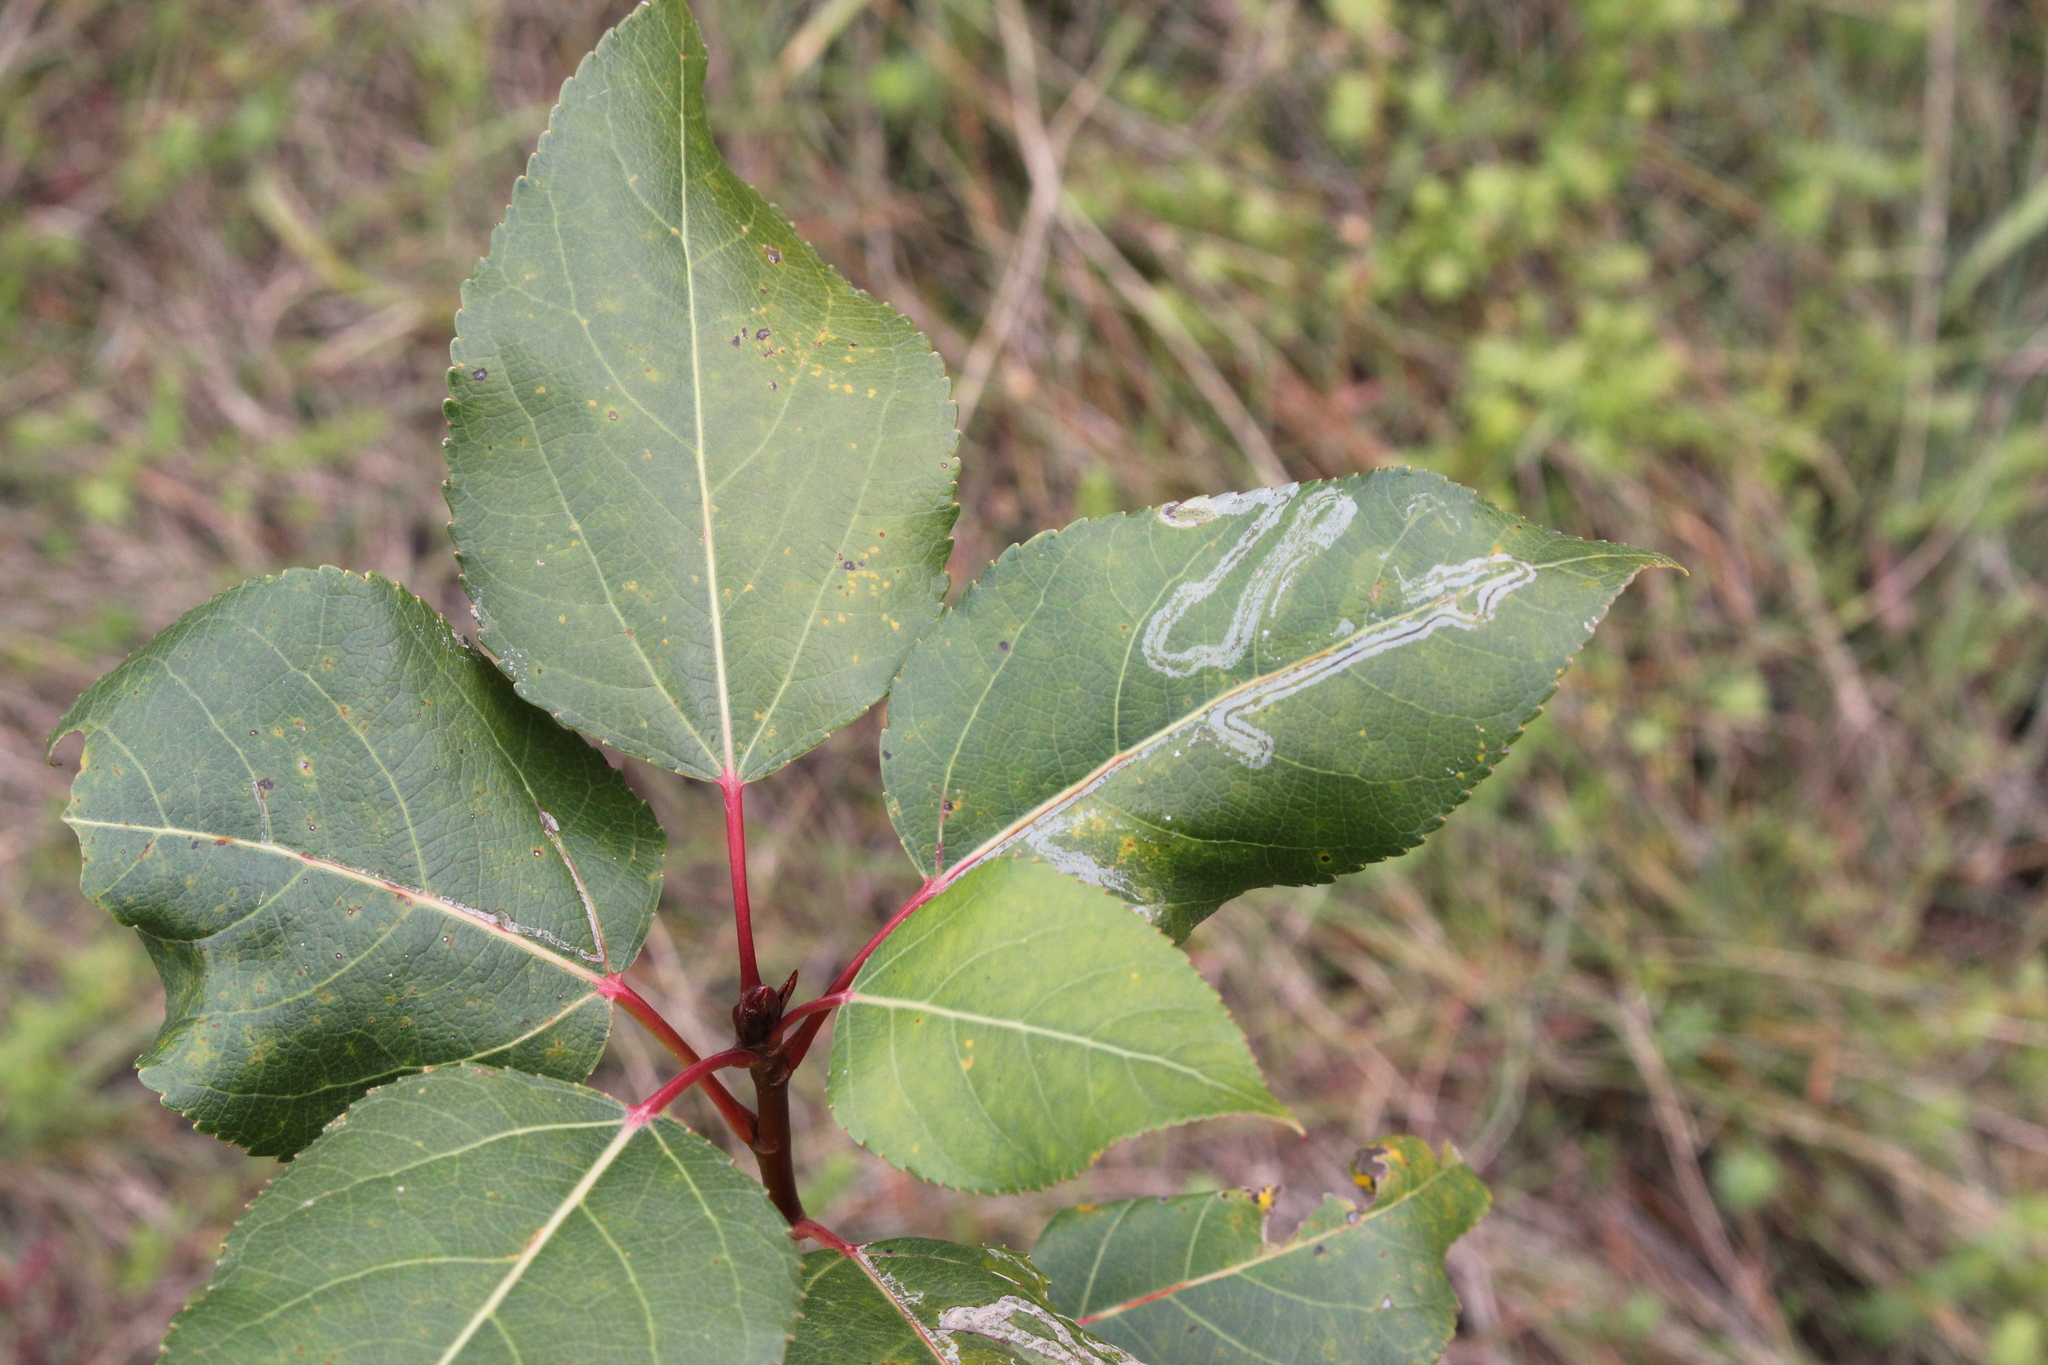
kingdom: Animalia
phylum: Arthropoda
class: Insecta
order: Lepidoptera
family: Gracillariidae
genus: Phyllocnistis
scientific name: Phyllocnistis populiella
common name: Aspen serpentine leafminer moth
